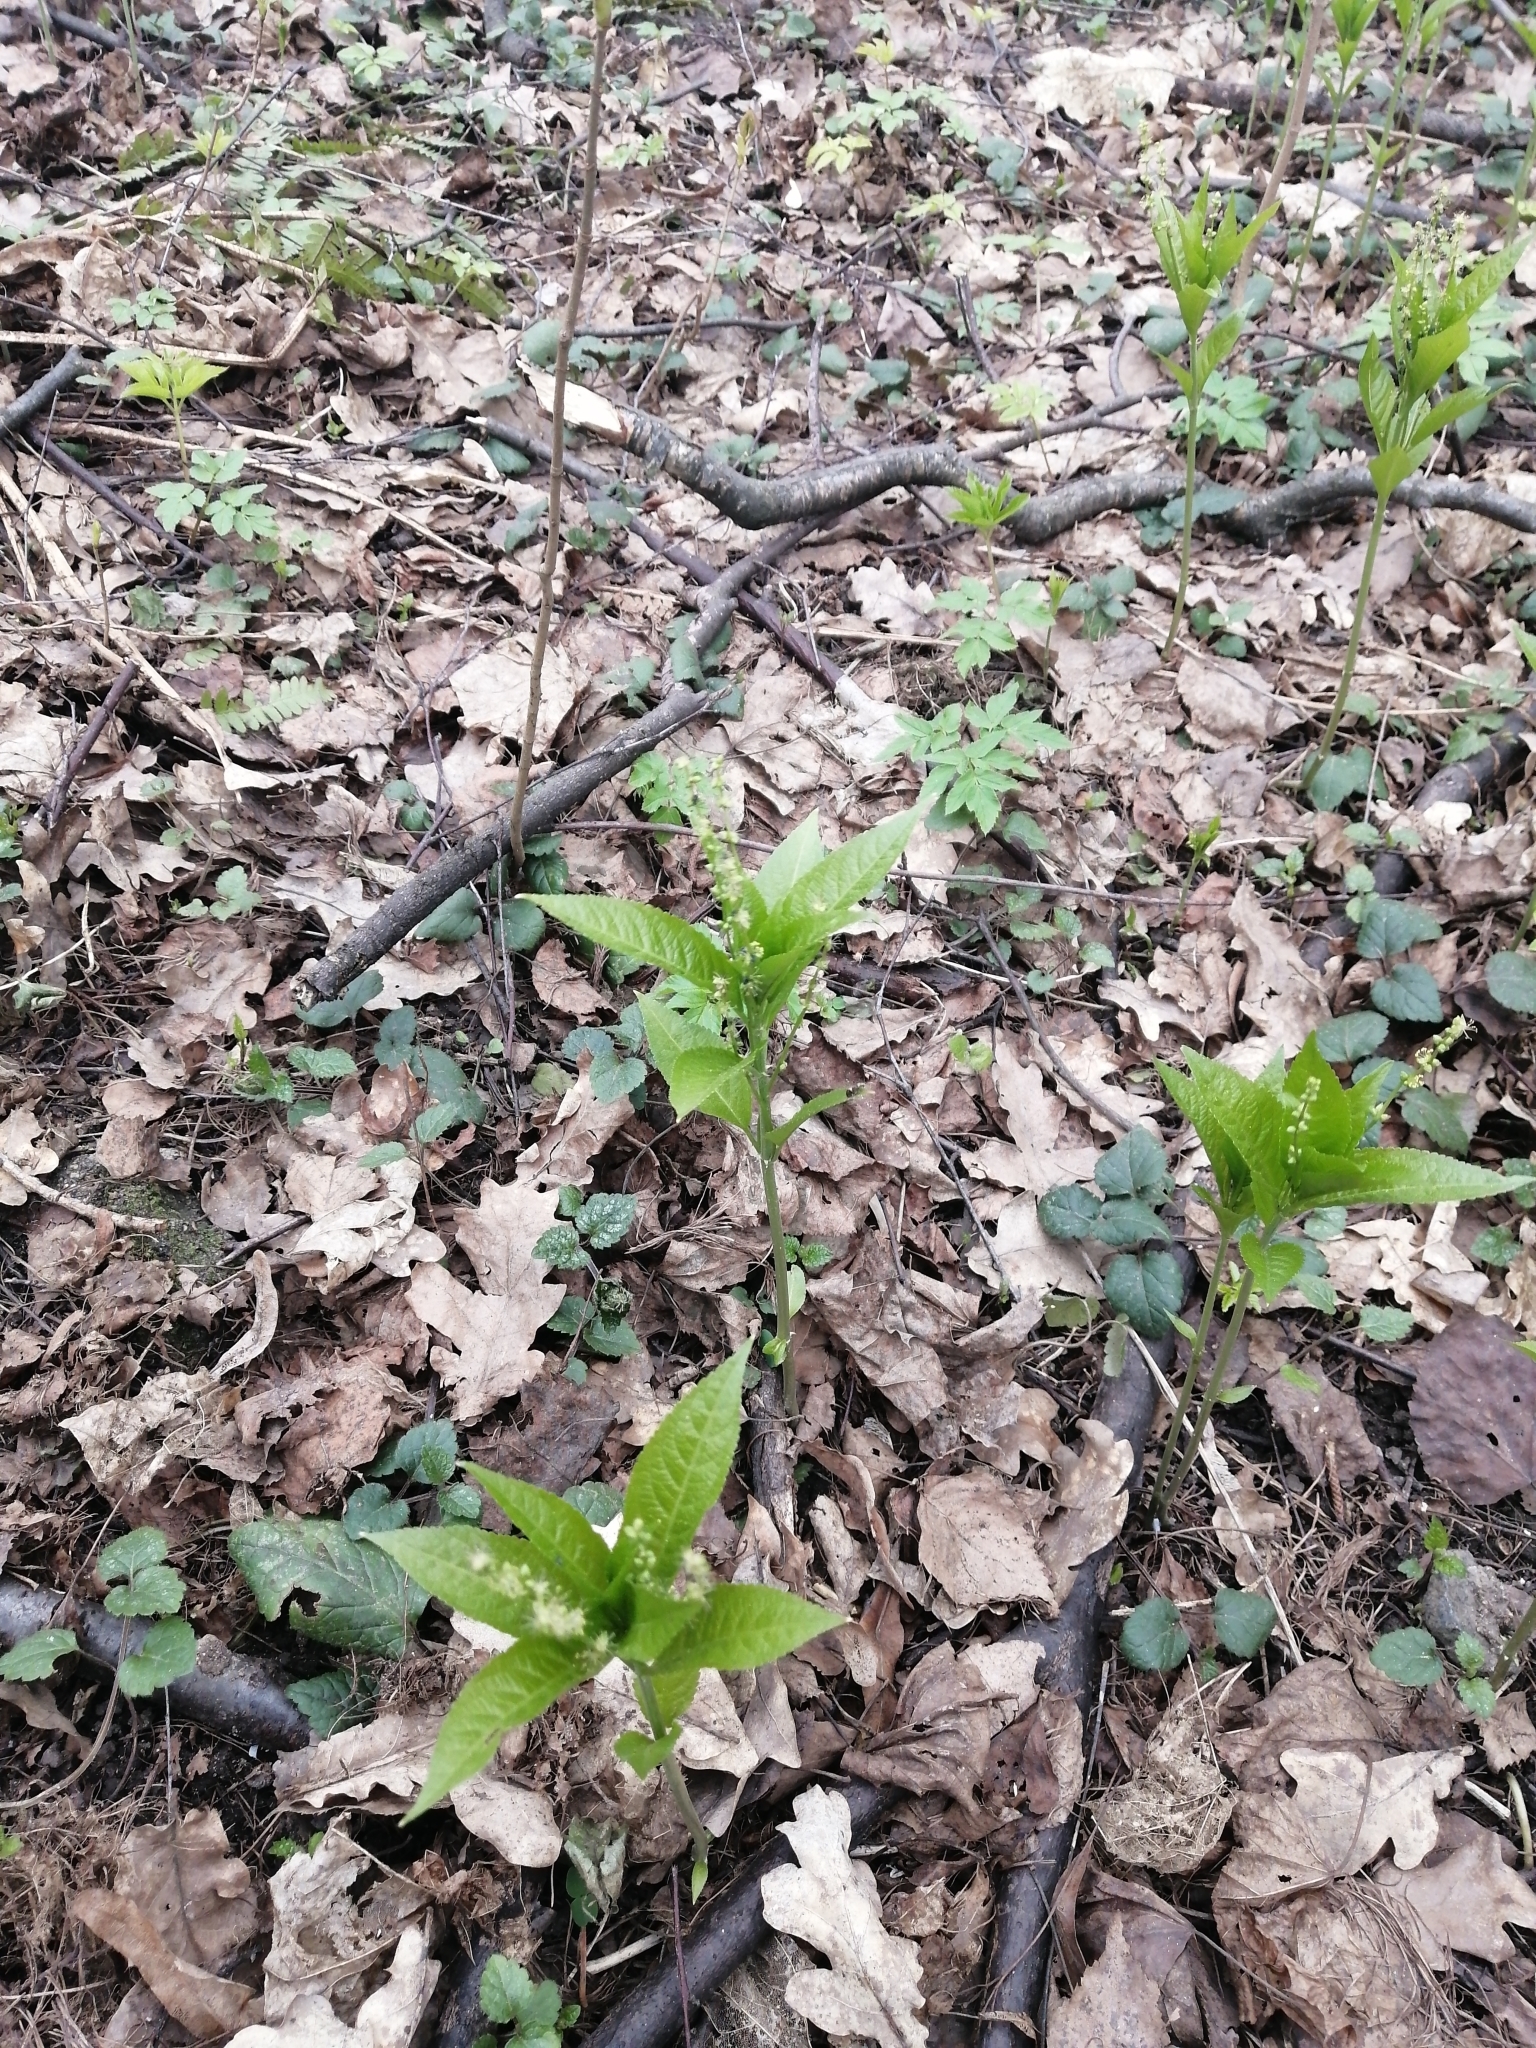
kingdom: Plantae
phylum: Tracheophyta
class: Magnoliopsida
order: Malpighiales
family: Euphorbiaceae
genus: Mercurialis
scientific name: Mercurialis perennis
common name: Dog mercury
